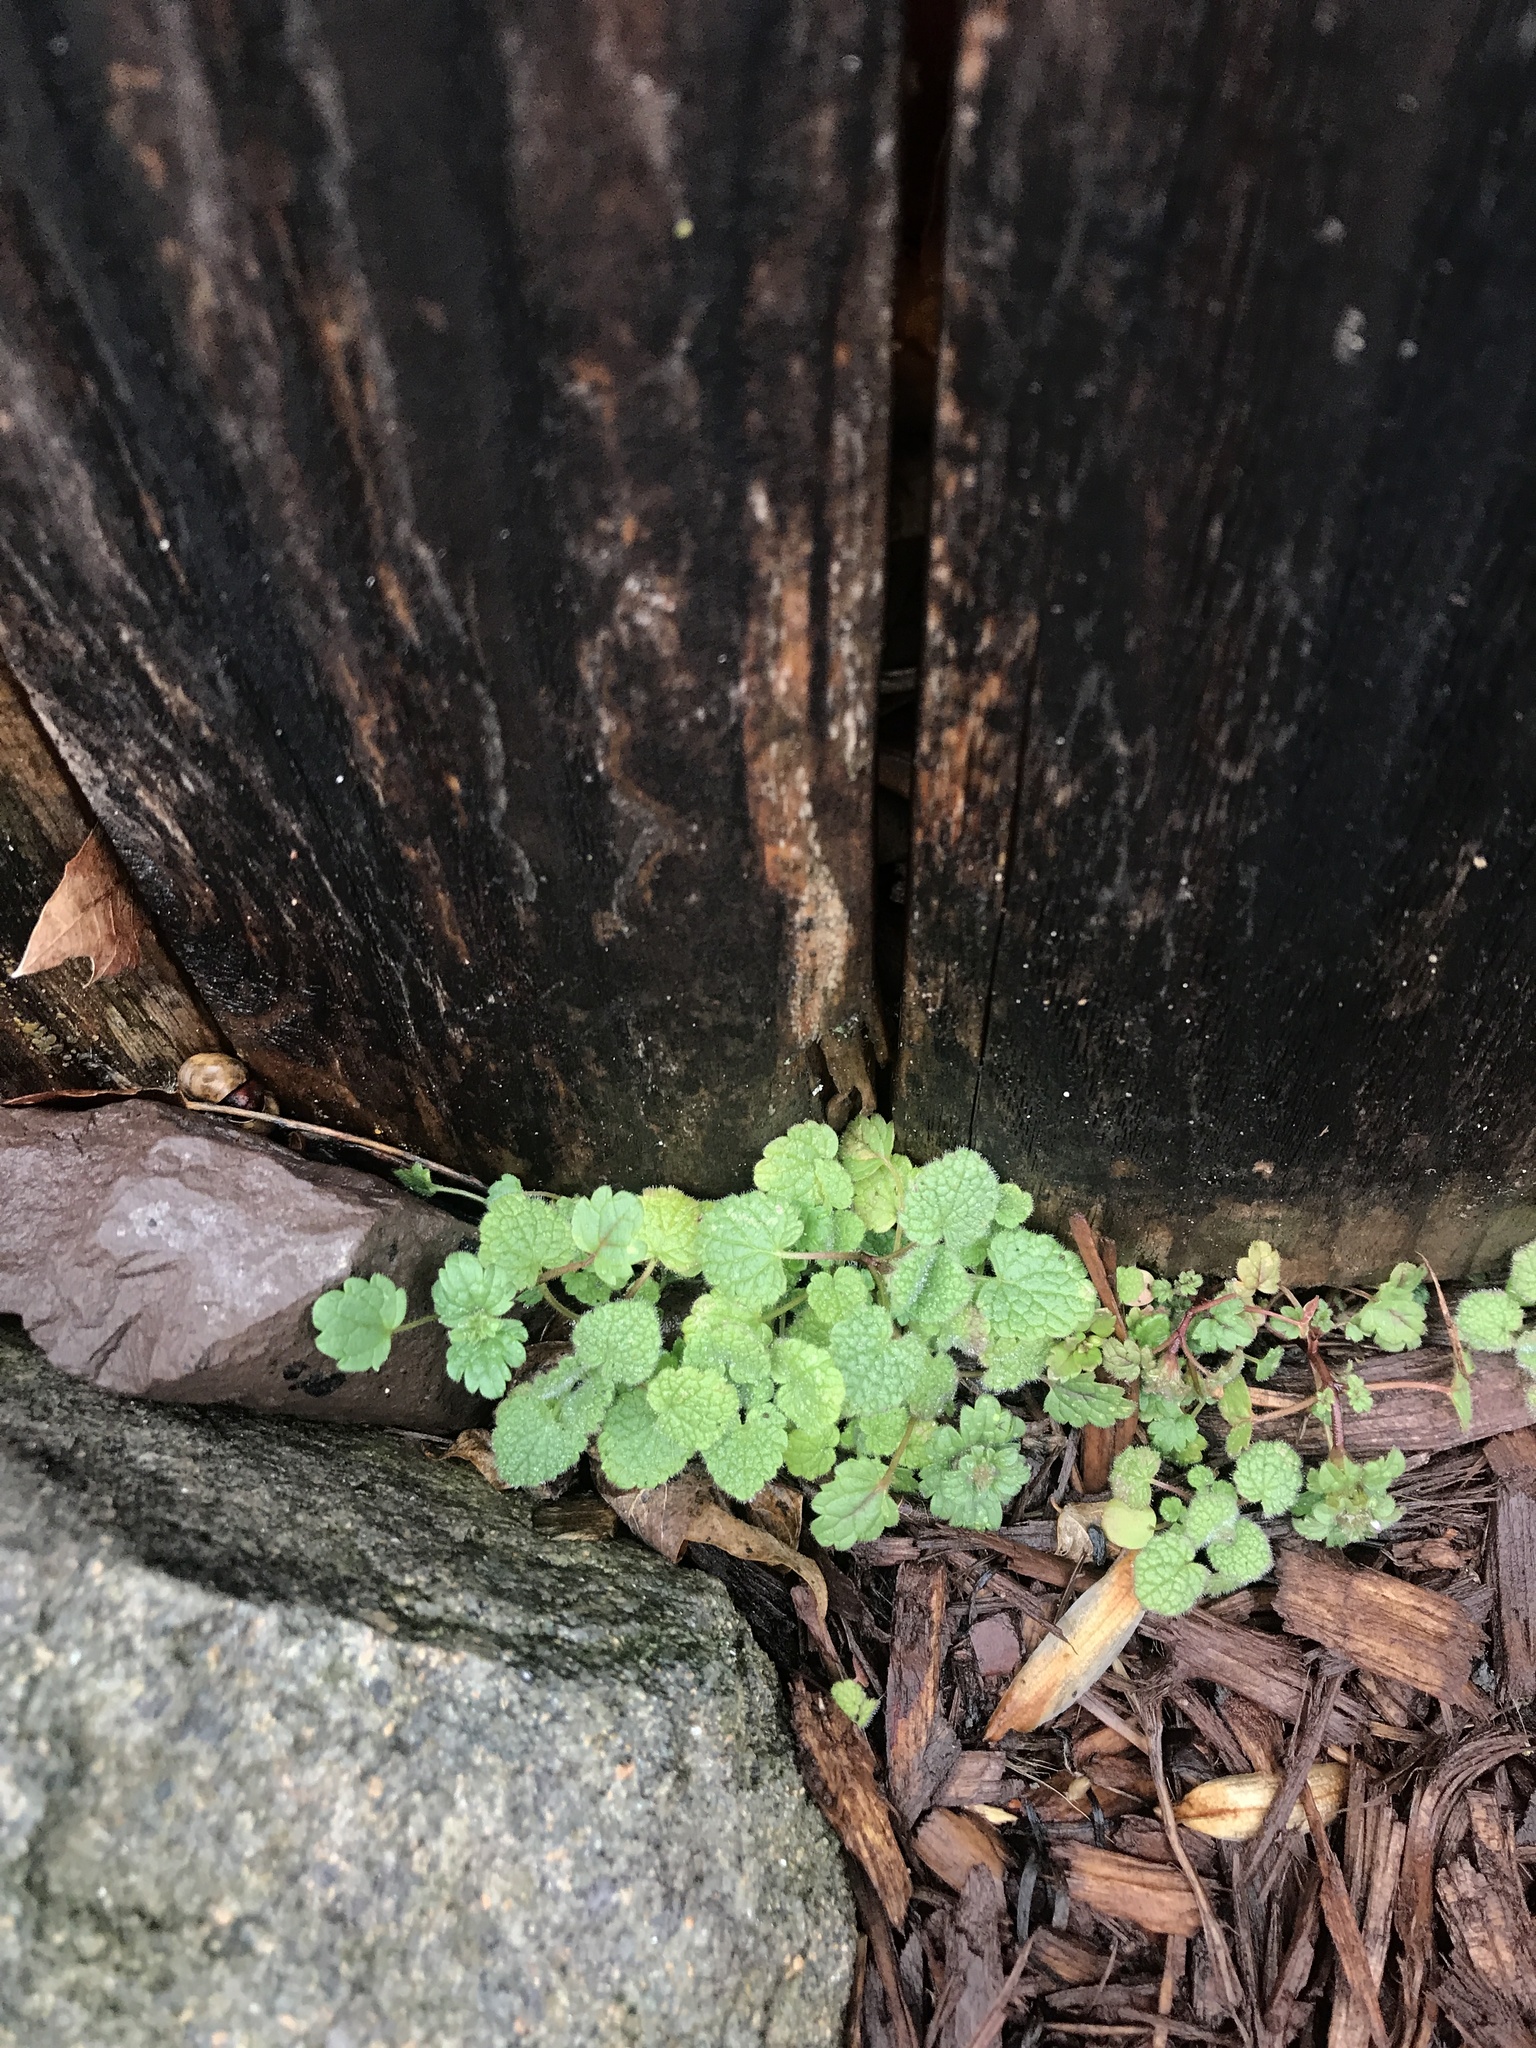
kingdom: Plantae
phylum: Tracheophyta
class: Magnoliopsida
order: Lamiales
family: Lamiaceae
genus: Lamium
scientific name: Lamium purpureum
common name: Red dead-nettle
